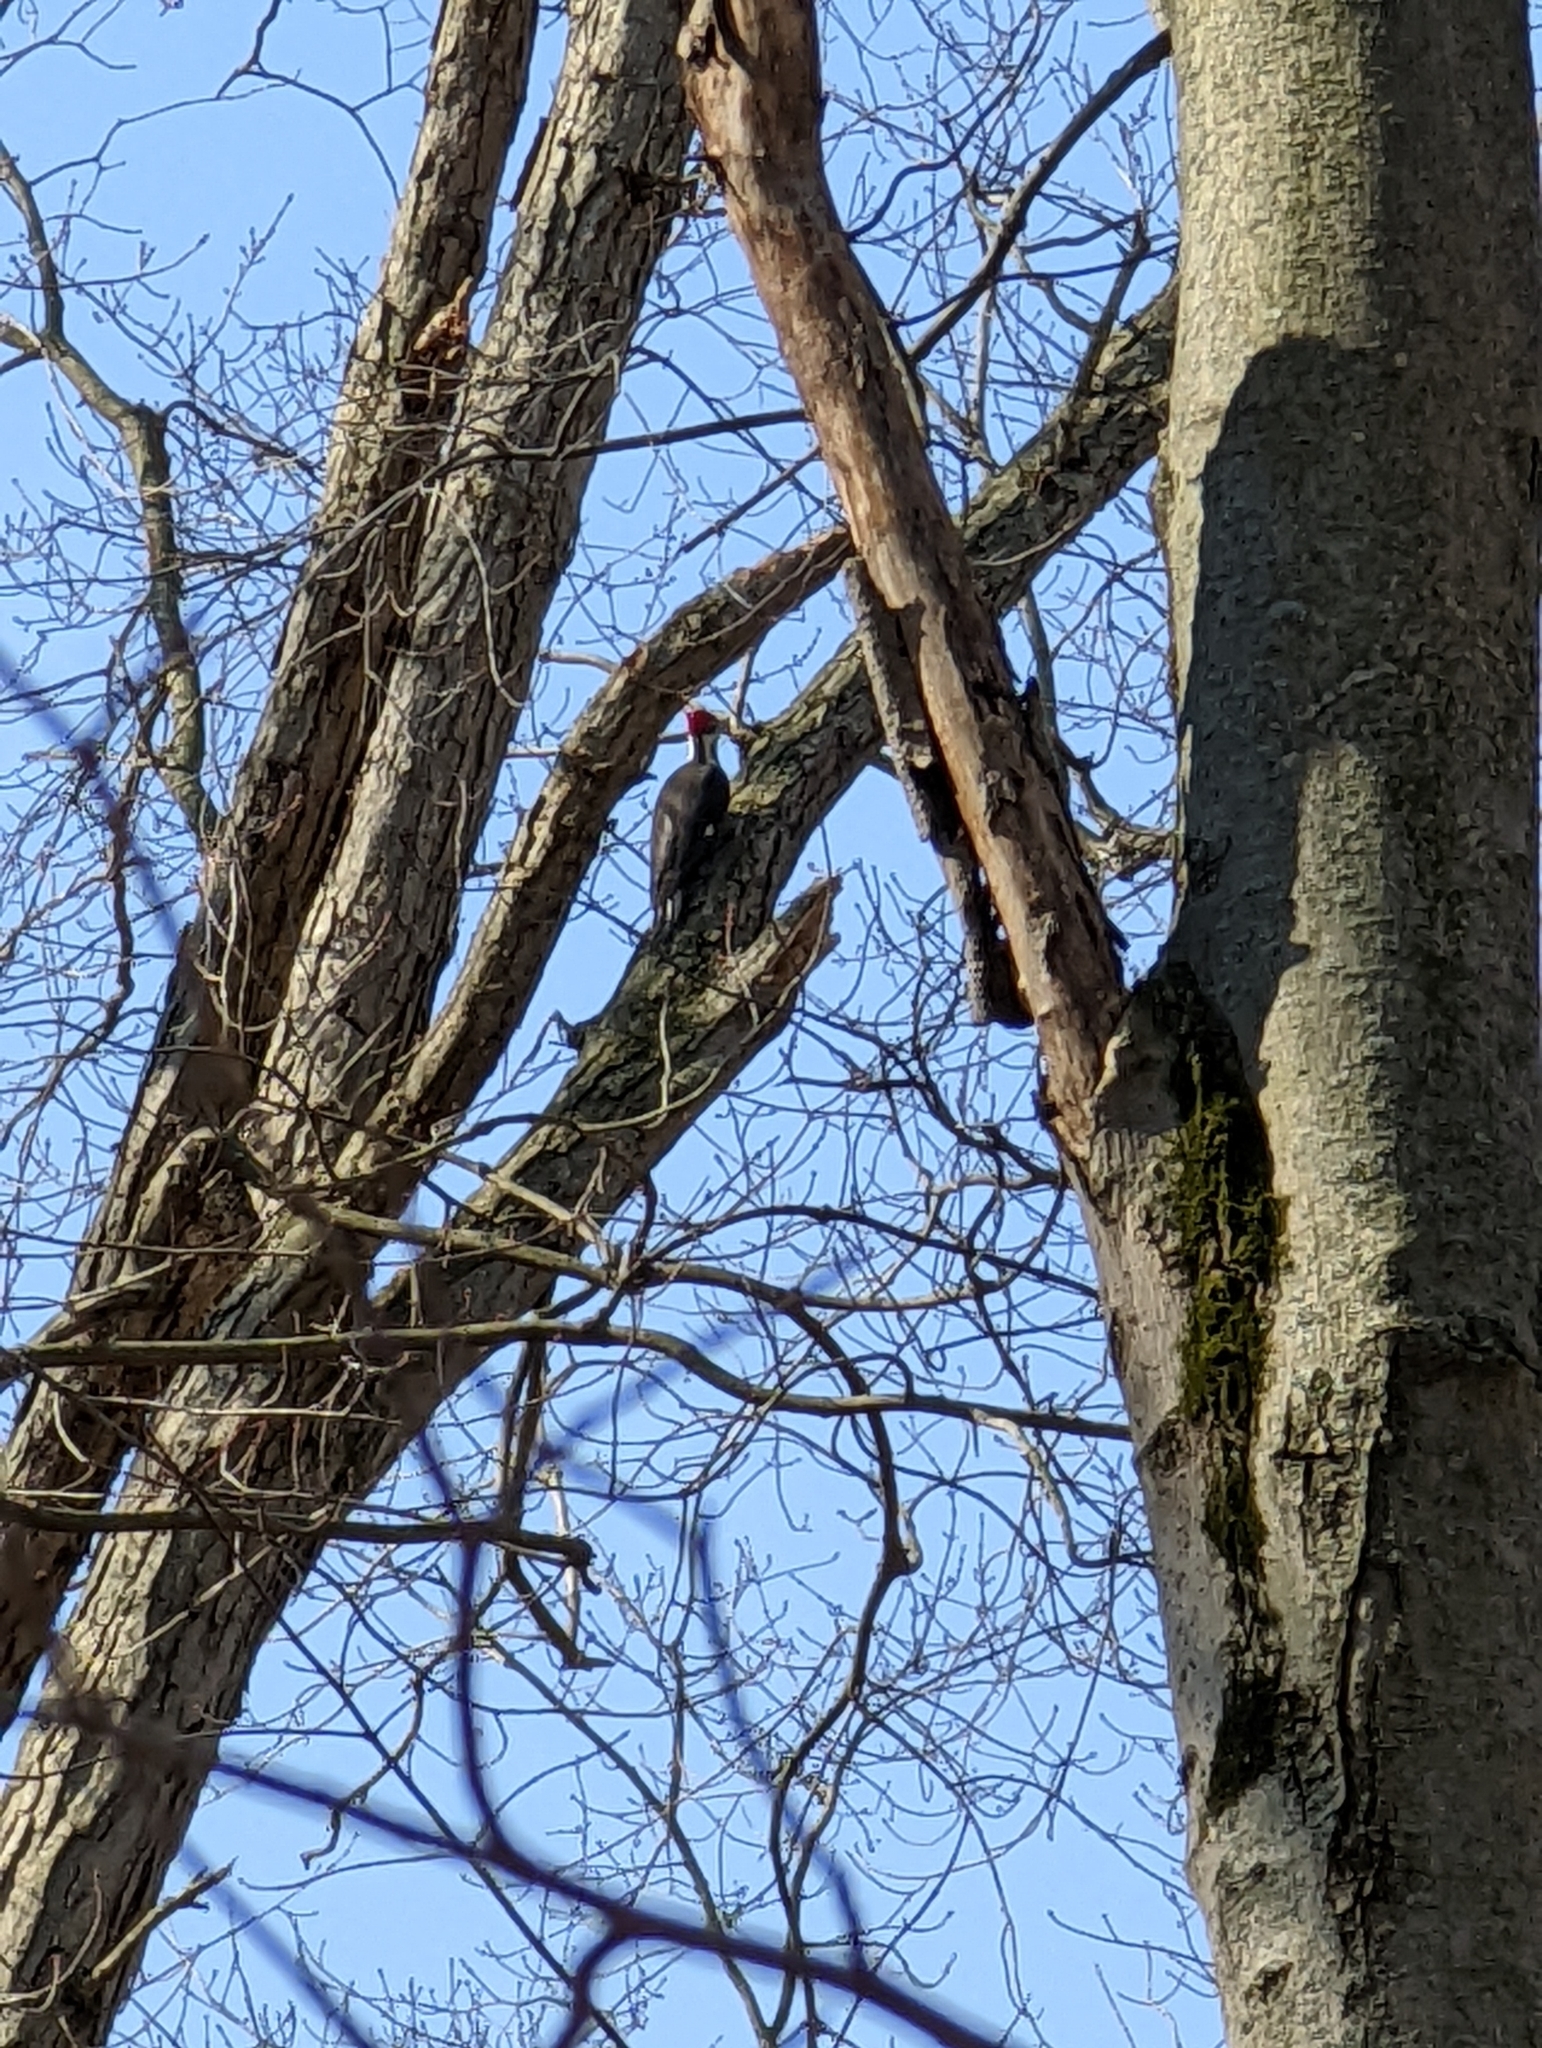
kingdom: Animalia
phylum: Chordata
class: Aves
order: Piciformes
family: Picidae
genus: Dryocopus
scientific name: Dryocopus pileatus
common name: Pileated woodpecker
